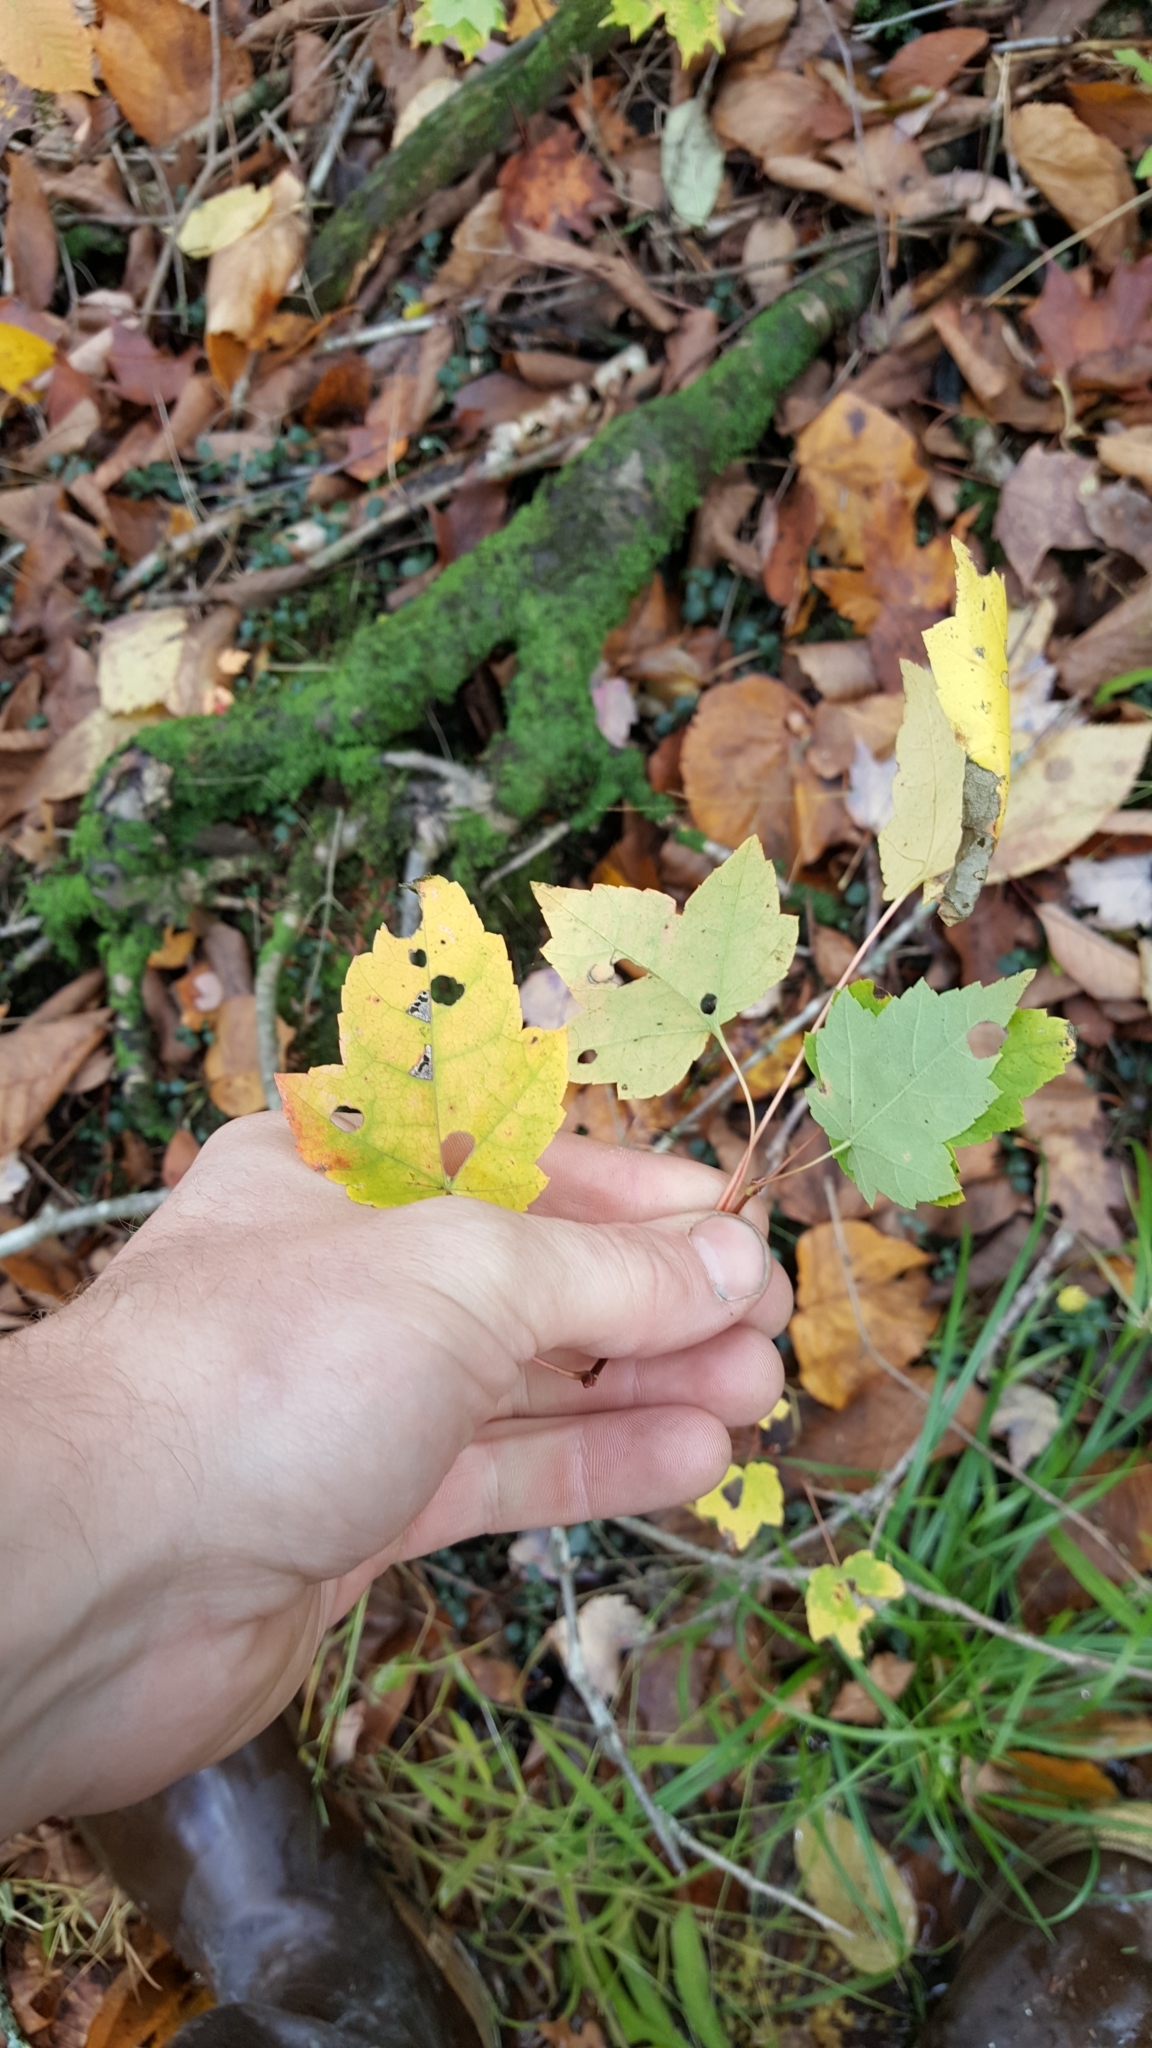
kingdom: Plantae
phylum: Tracheophyta
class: Magnoliopsida
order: Sapindales
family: Sapindaceae
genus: Acer
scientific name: Acer rubrum
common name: Red maple
